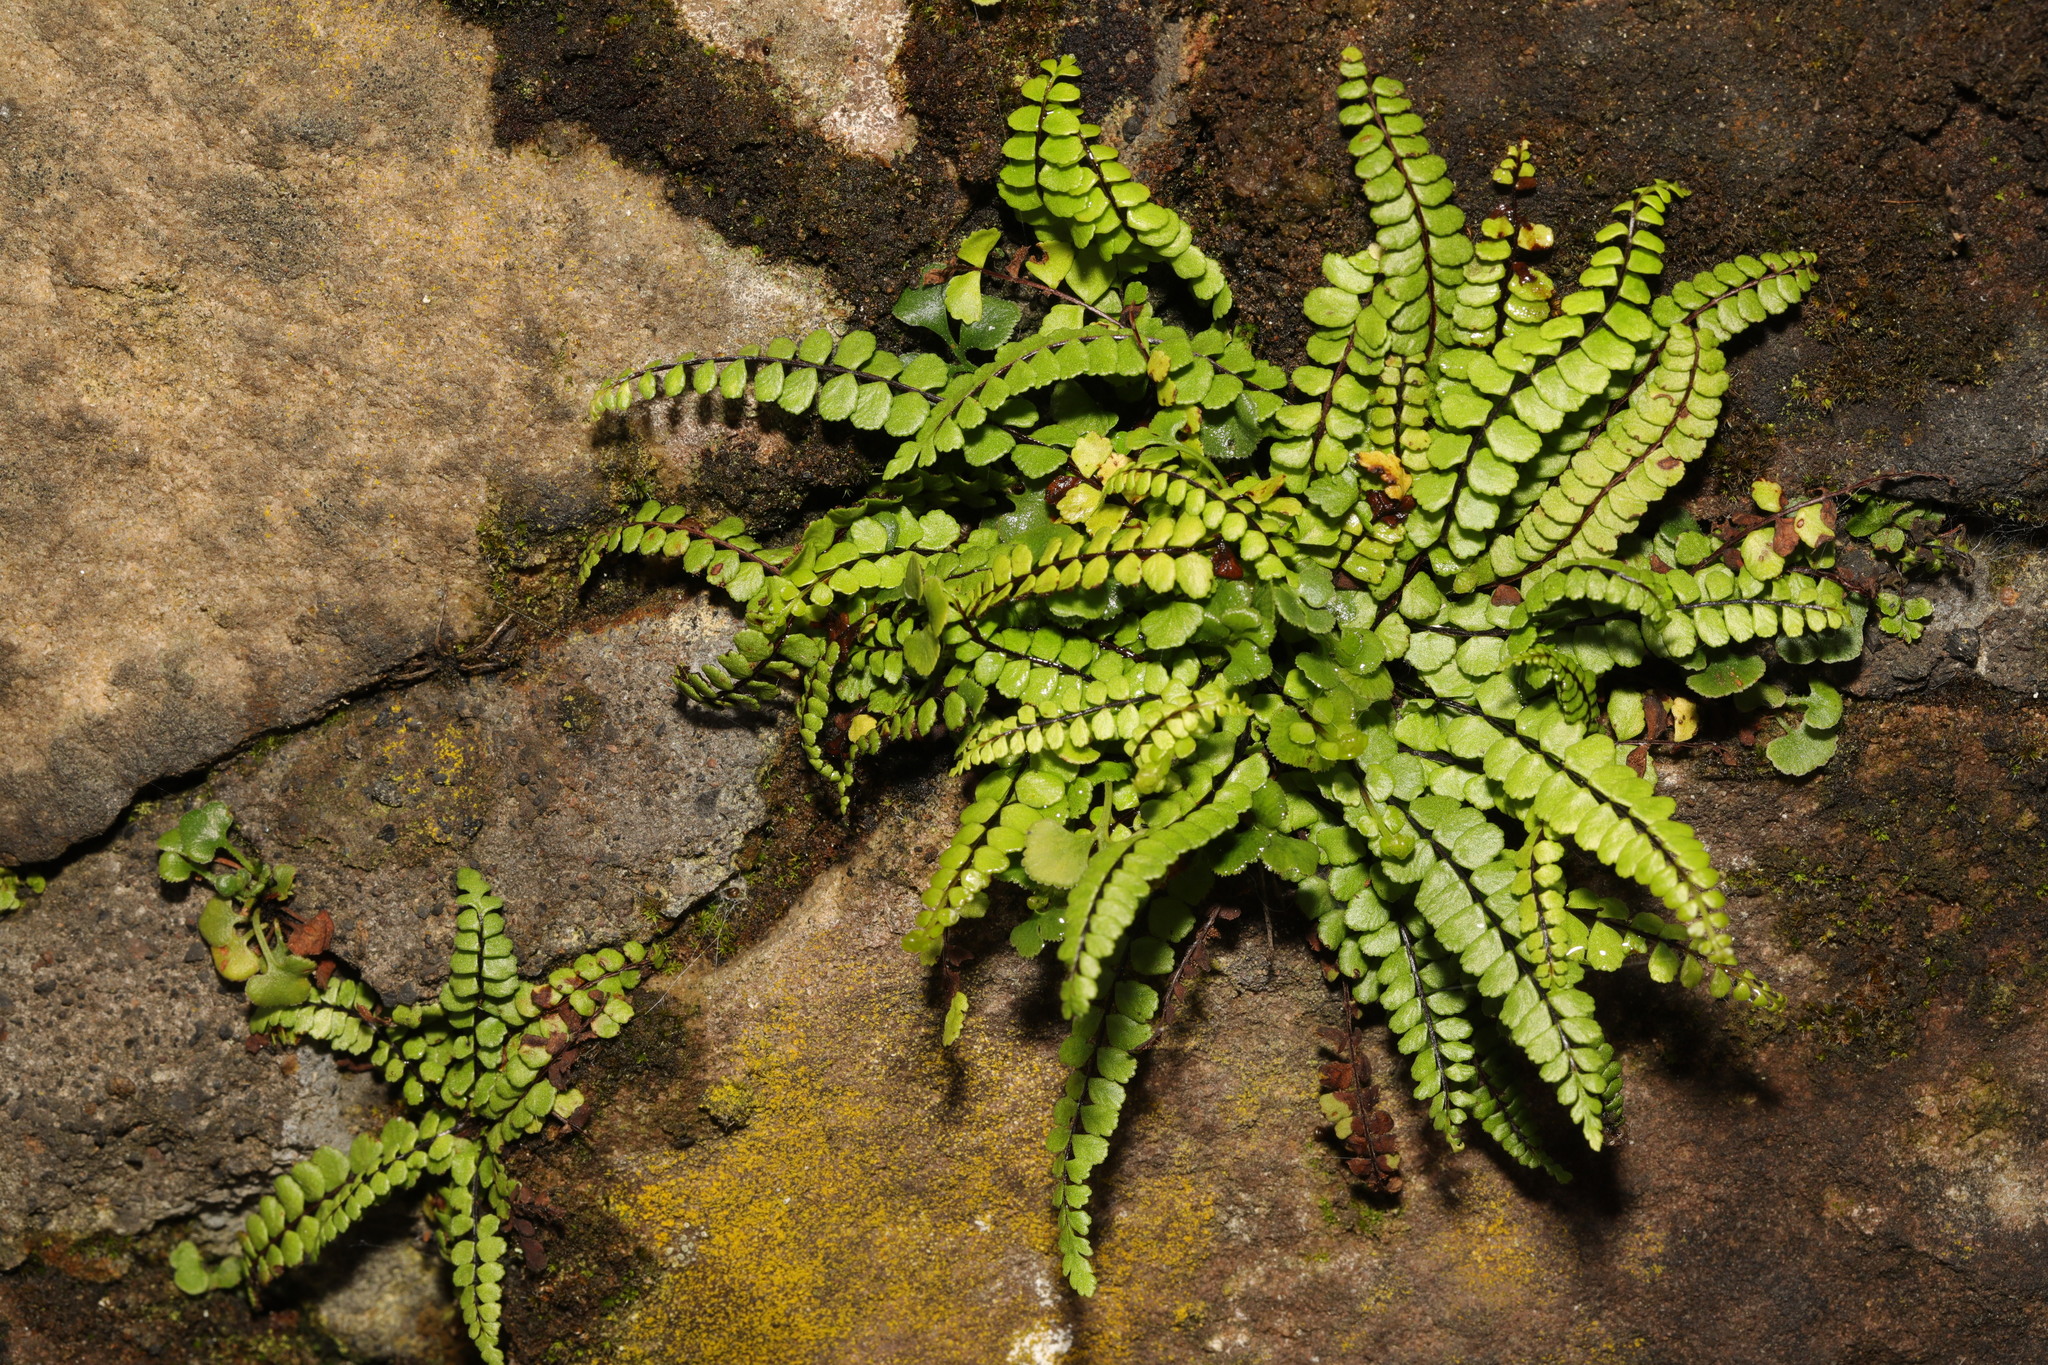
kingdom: Plantae
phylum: Tracheophyta
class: Polypodiopsida
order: Polypodiales
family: Aspleniaceae
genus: Asplenium
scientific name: Asplenium trichomanes
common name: Maidenhair spleenwort
